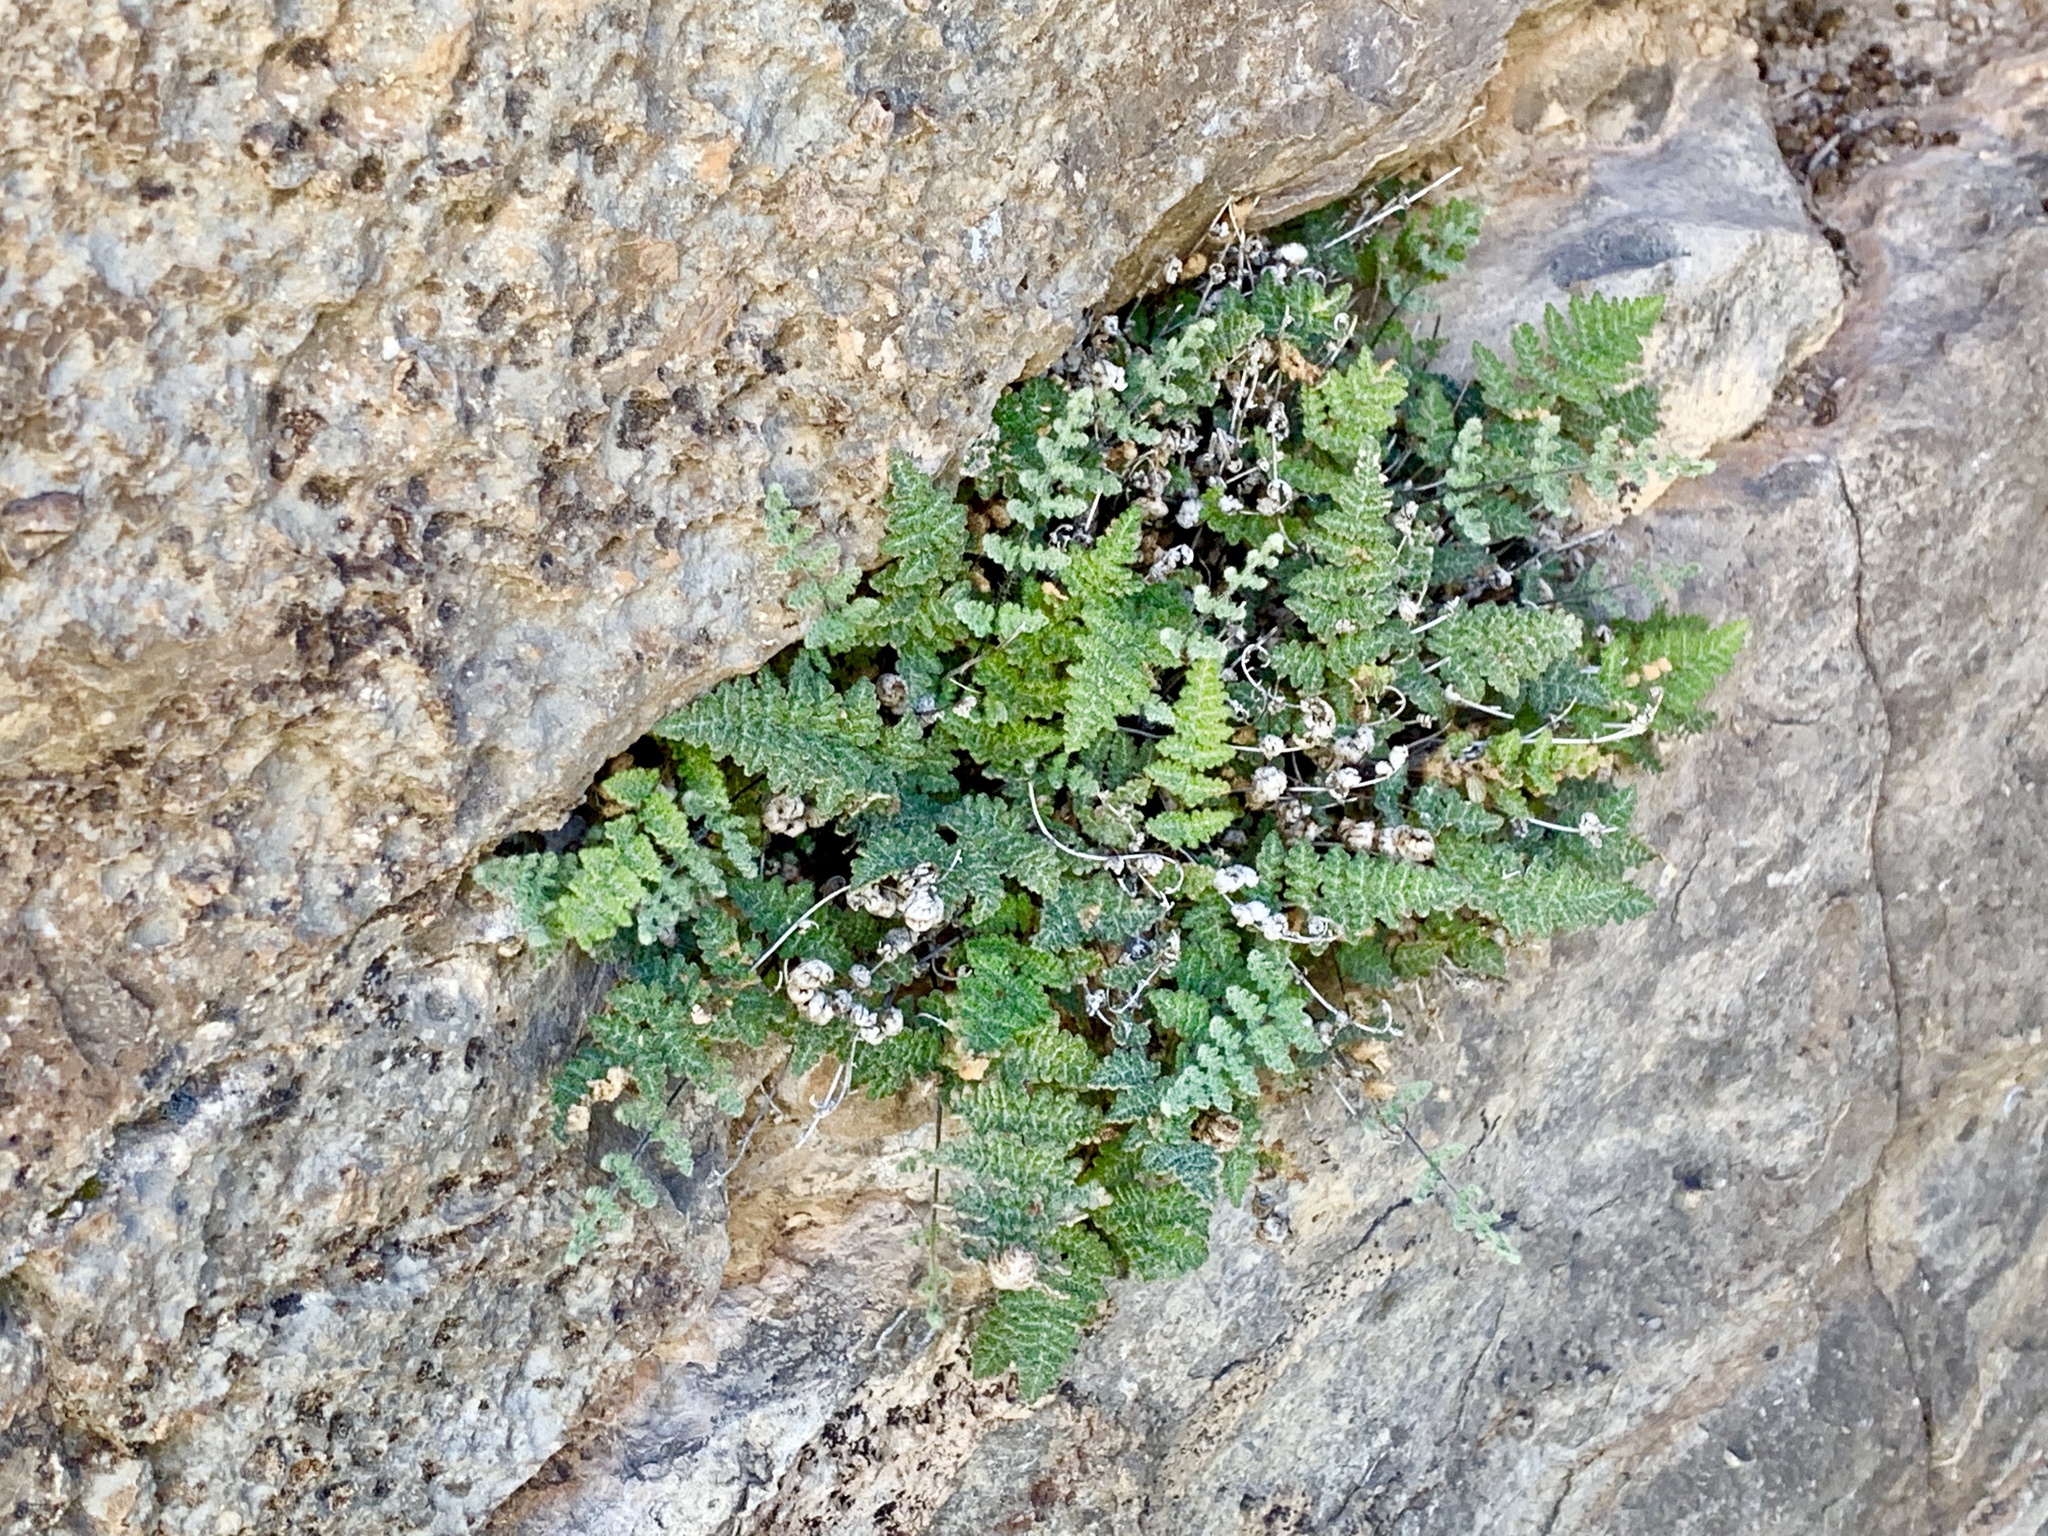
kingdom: Plantae
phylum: Tracheophyta
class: Polypodiopsida
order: Polypodiales
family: Pteridaceae
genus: Myriopteris
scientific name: Myriopteris gracilis
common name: Fee's lip fern
